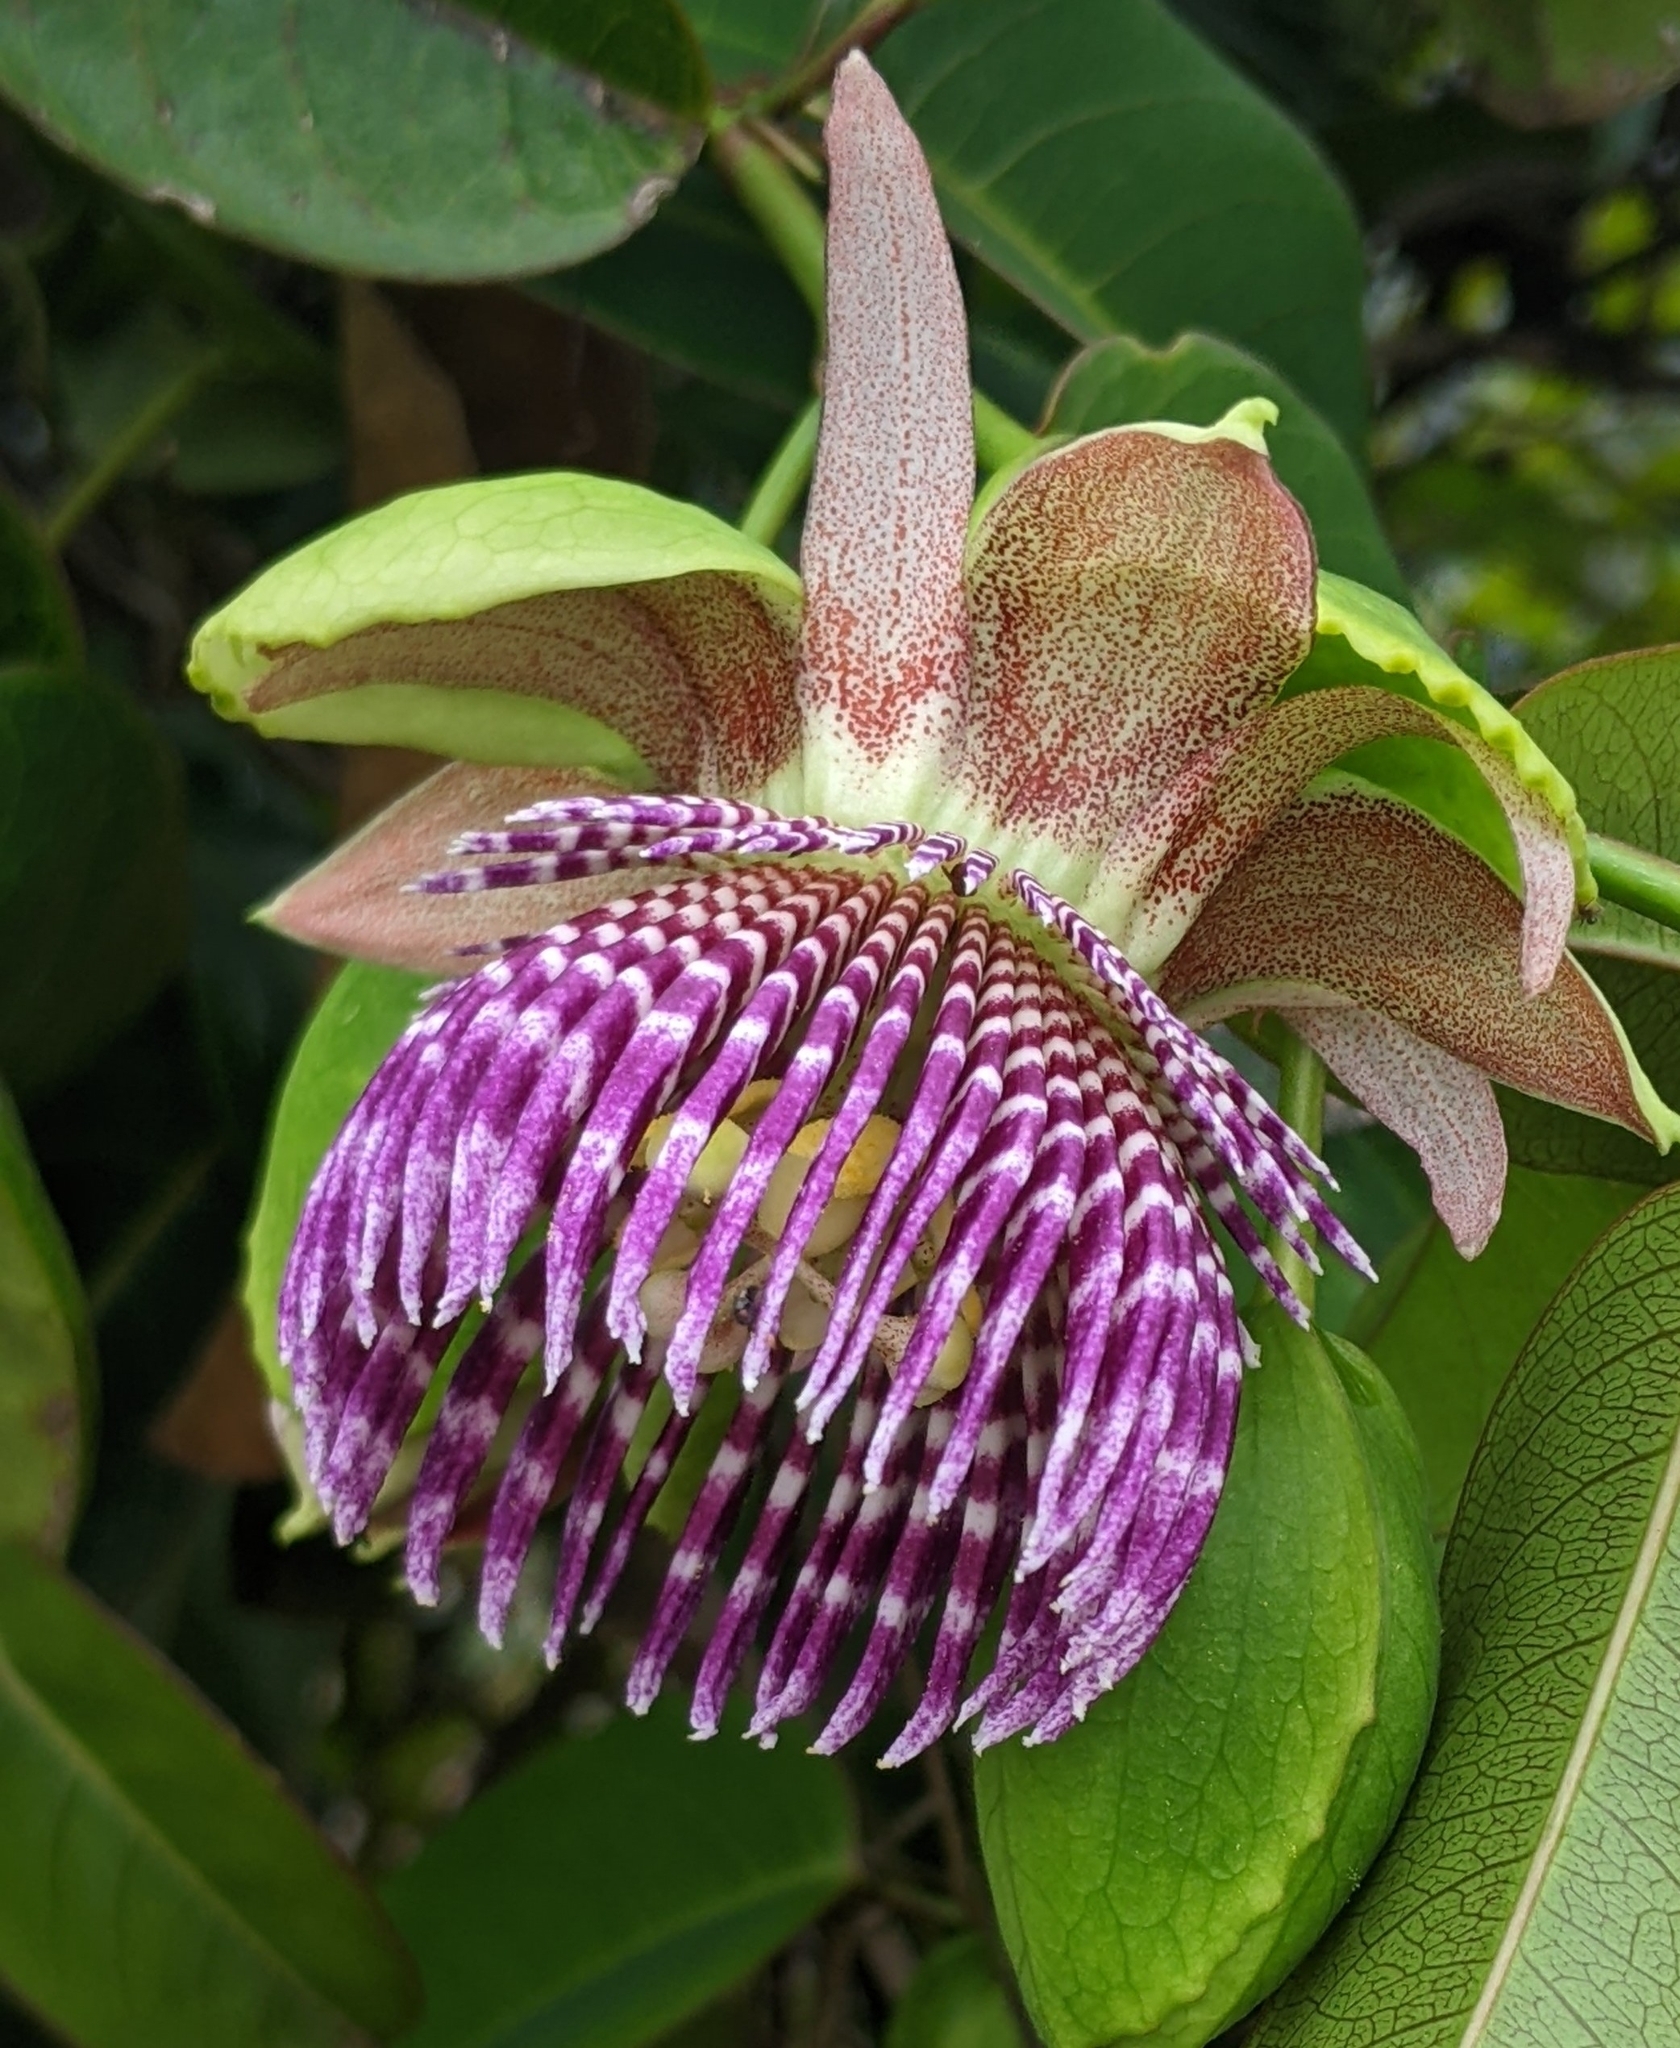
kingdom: Plantae
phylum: Tracheophyta
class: Magnoliopsida
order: Malpighiales
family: Passifloraceae
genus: Passiflora
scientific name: Passiflora laurifolia
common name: Bell apple
